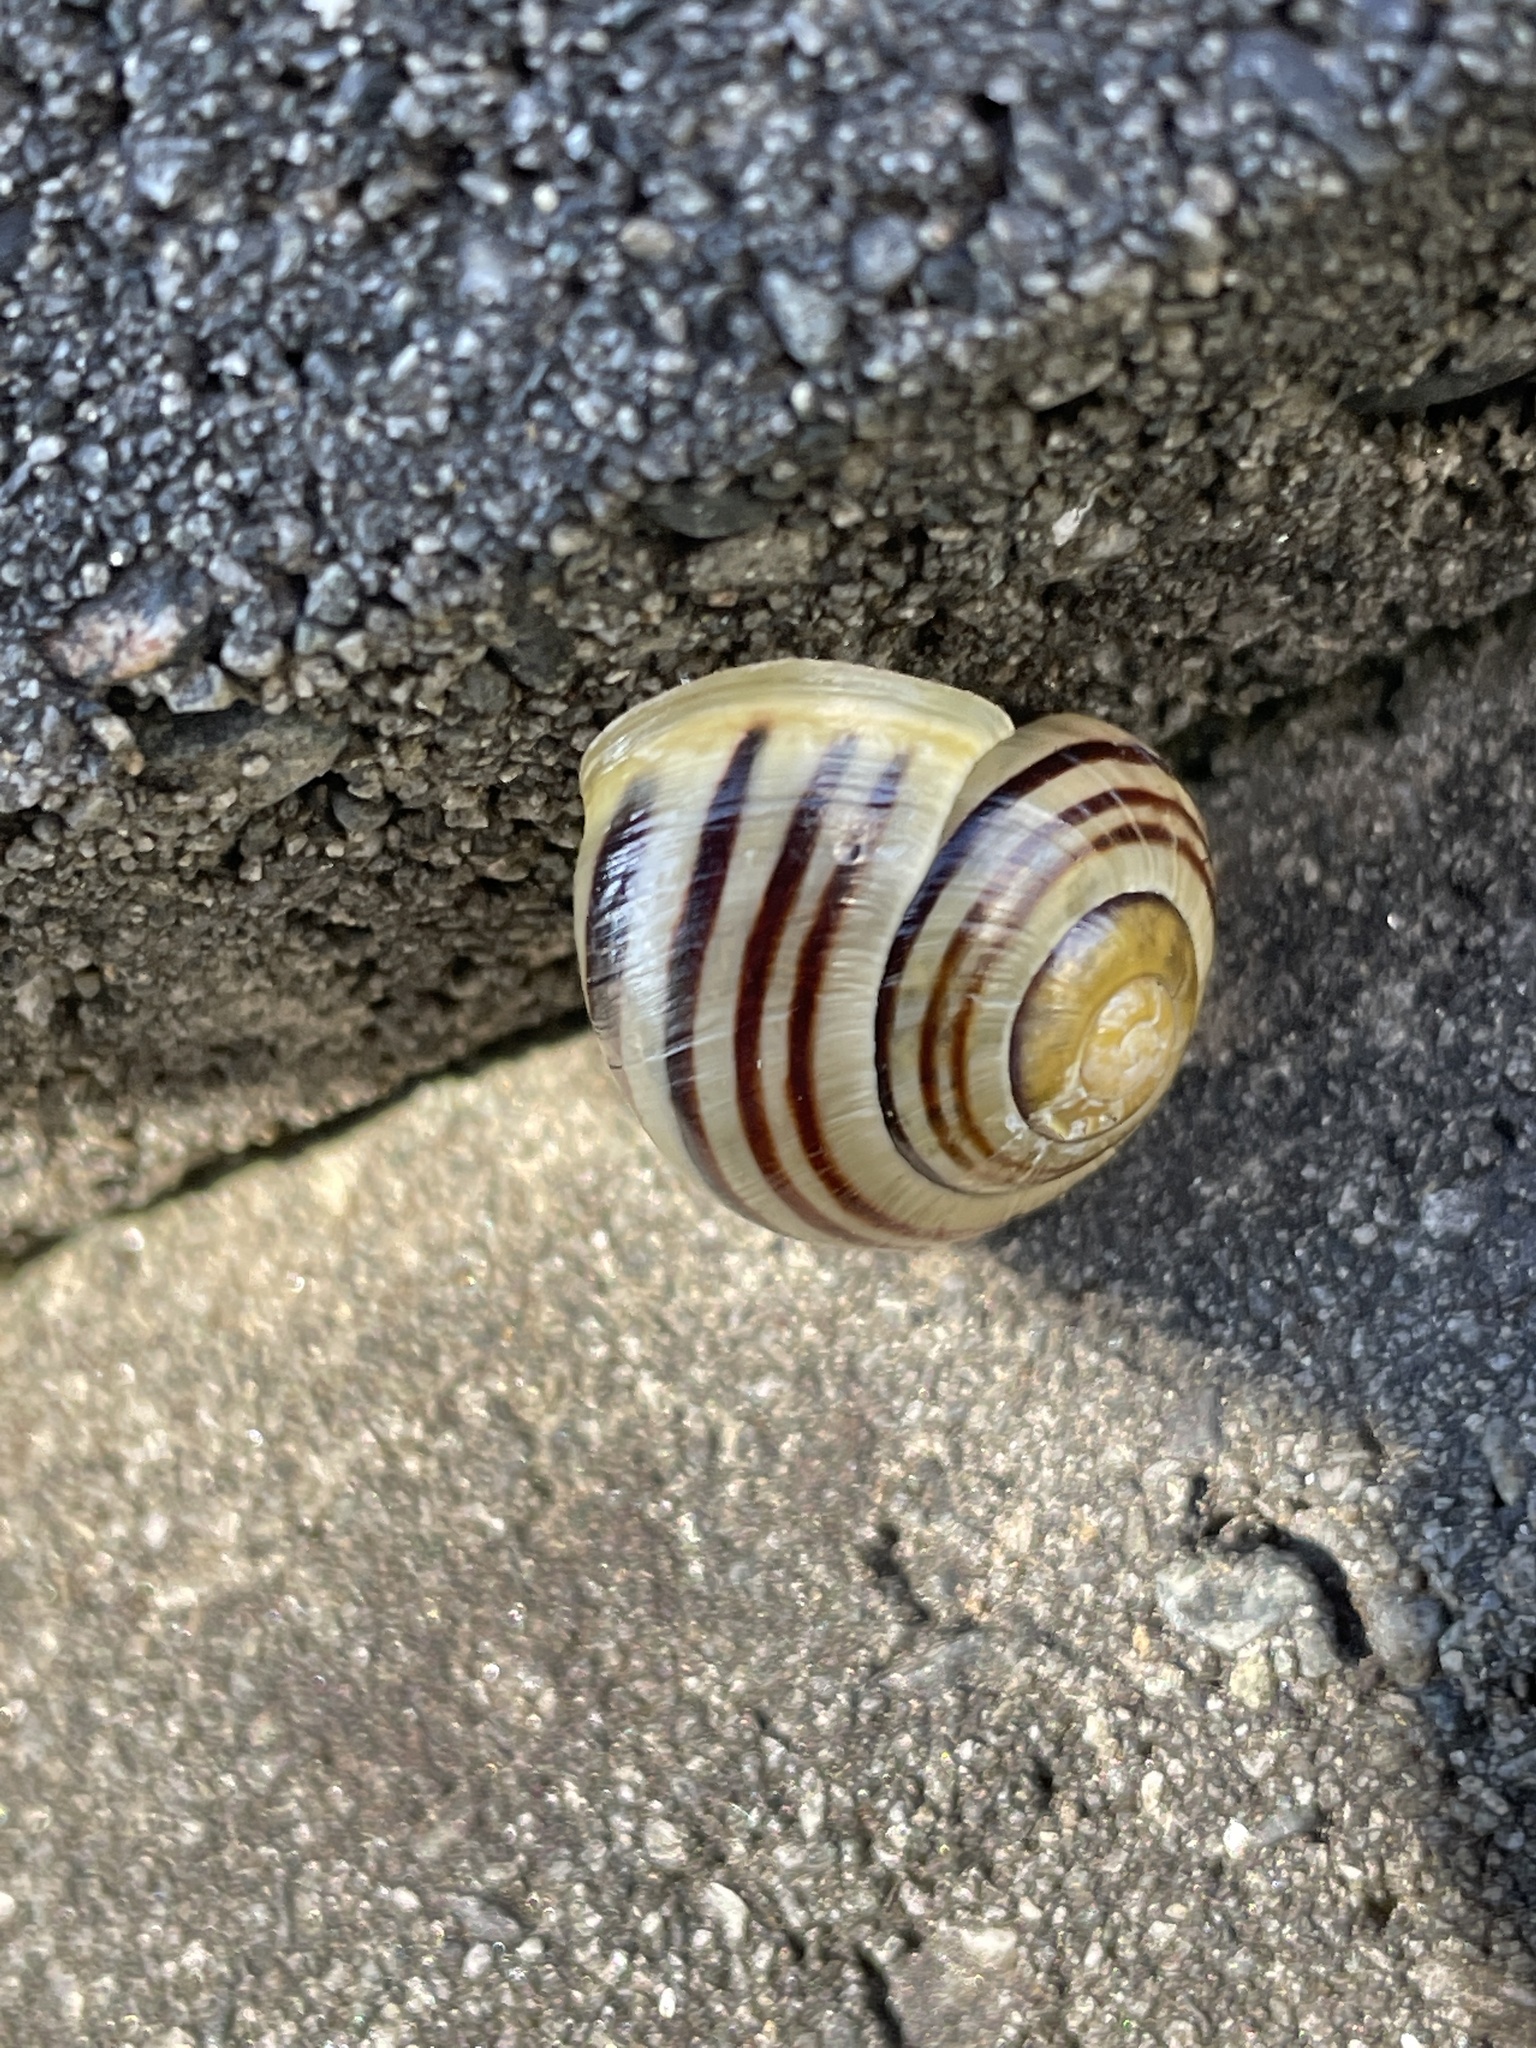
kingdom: Animalia
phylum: Mollusca
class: Gastropoda
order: Stylommatophora
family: Helicidae
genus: Cepaea
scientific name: Cepaea hortensis
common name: White-lip gardensnail
